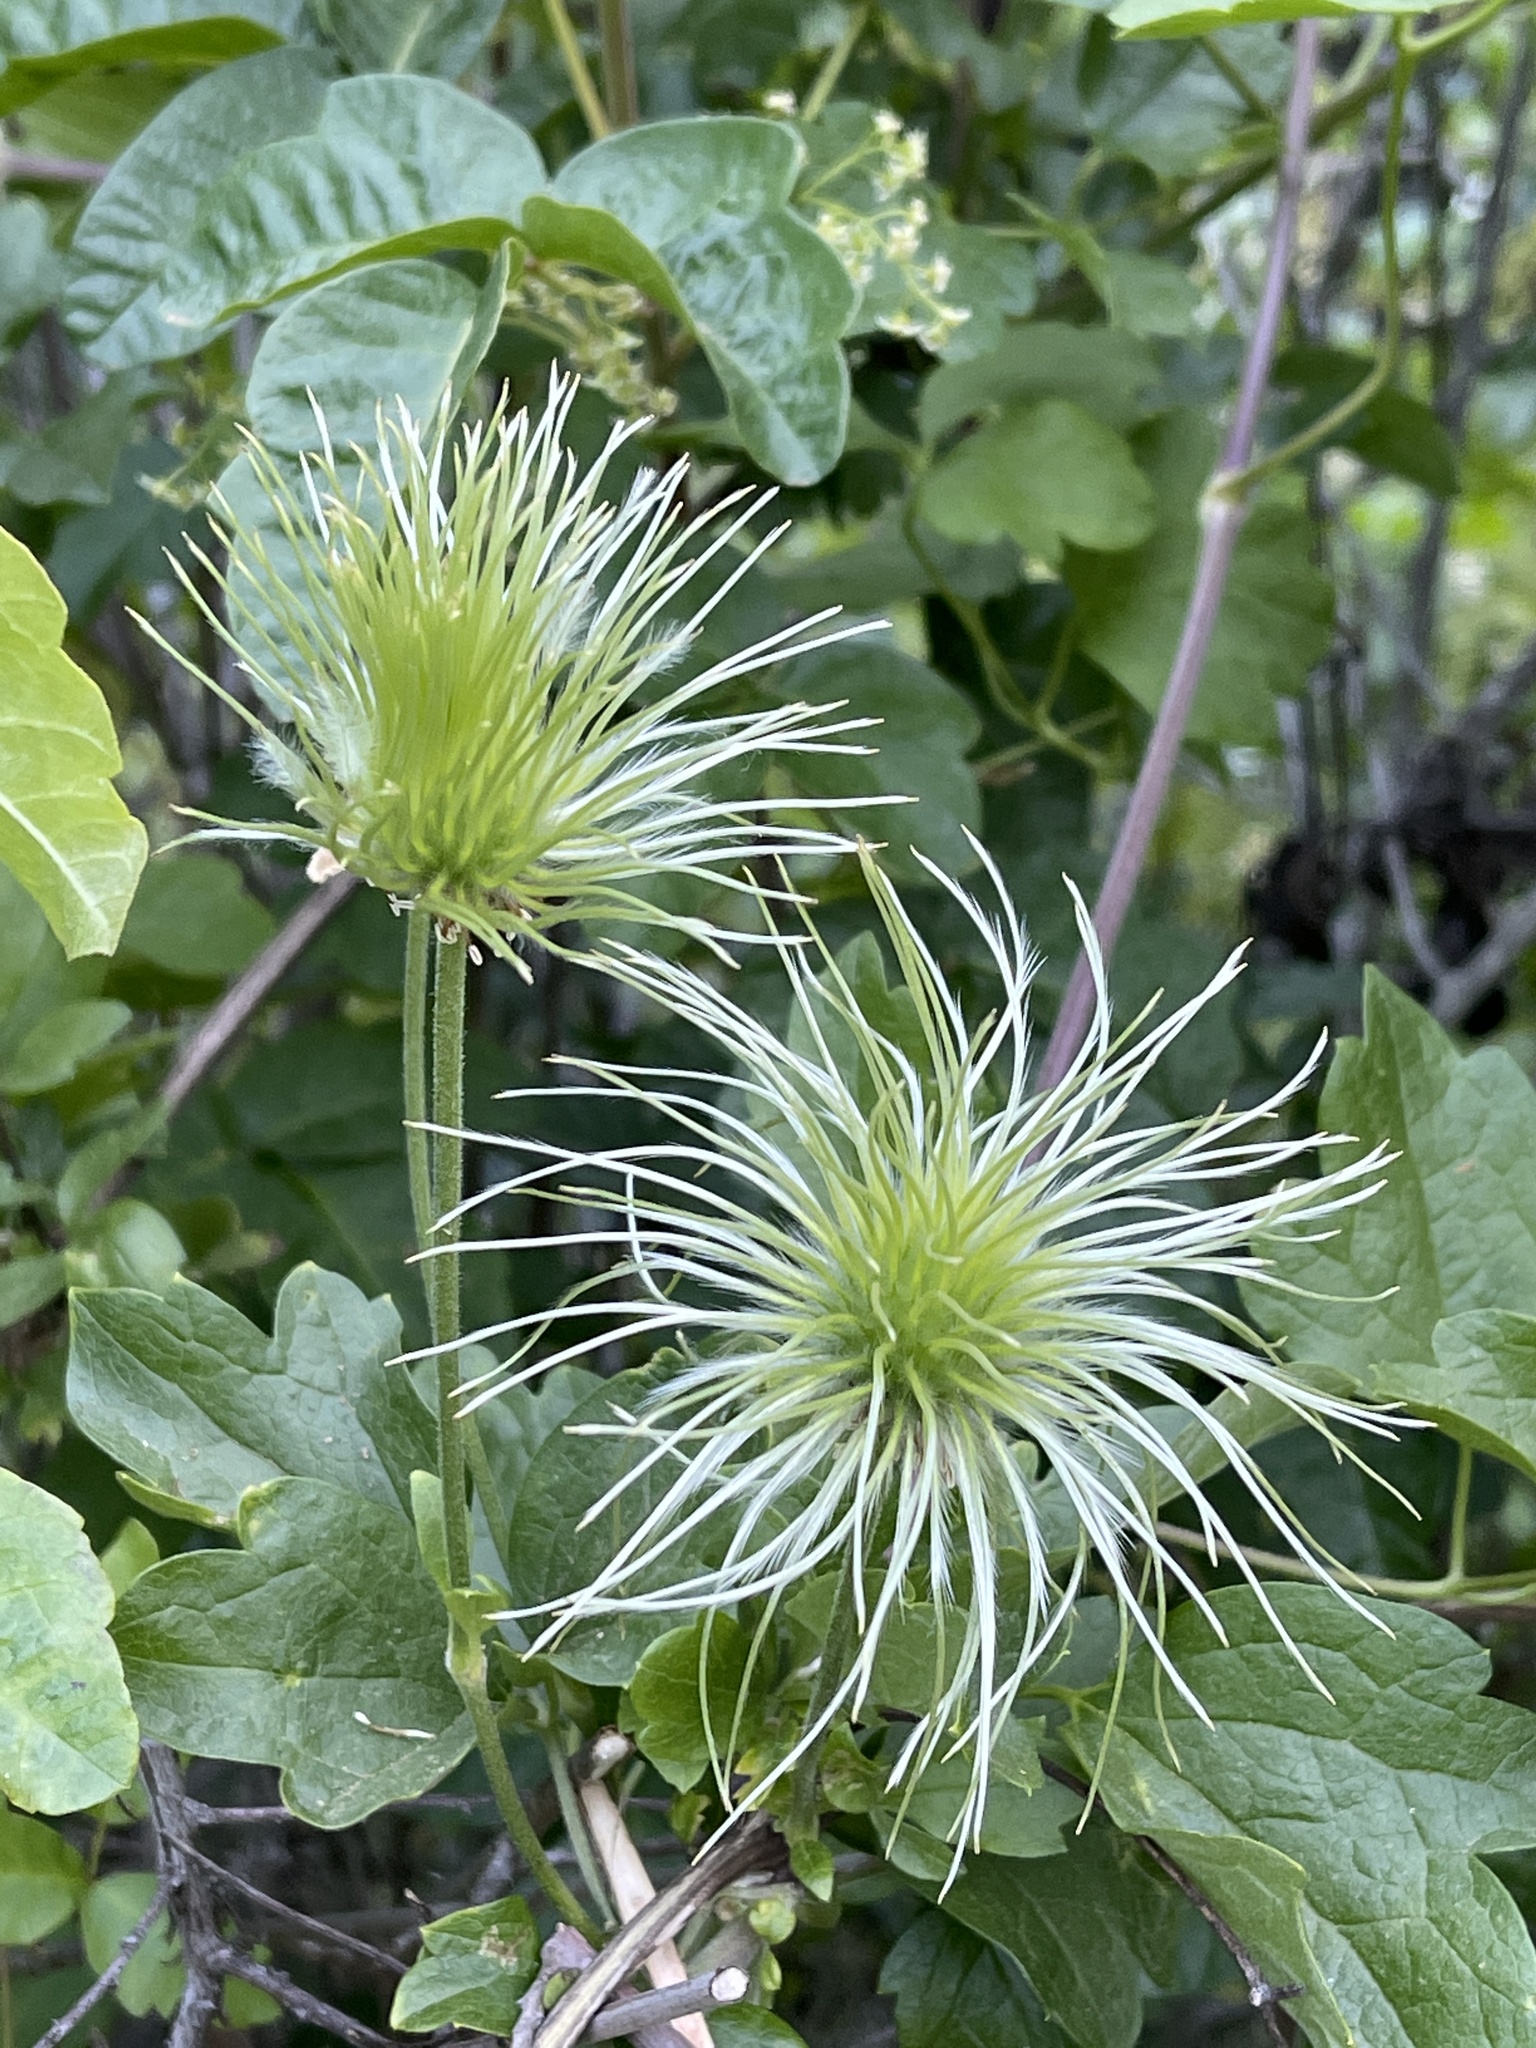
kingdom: Plantae
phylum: Tracheophyta
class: Magnoliopsida
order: Ranunculales
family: Ranunculaceae
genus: Clematis
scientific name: Clematis lasiantha
